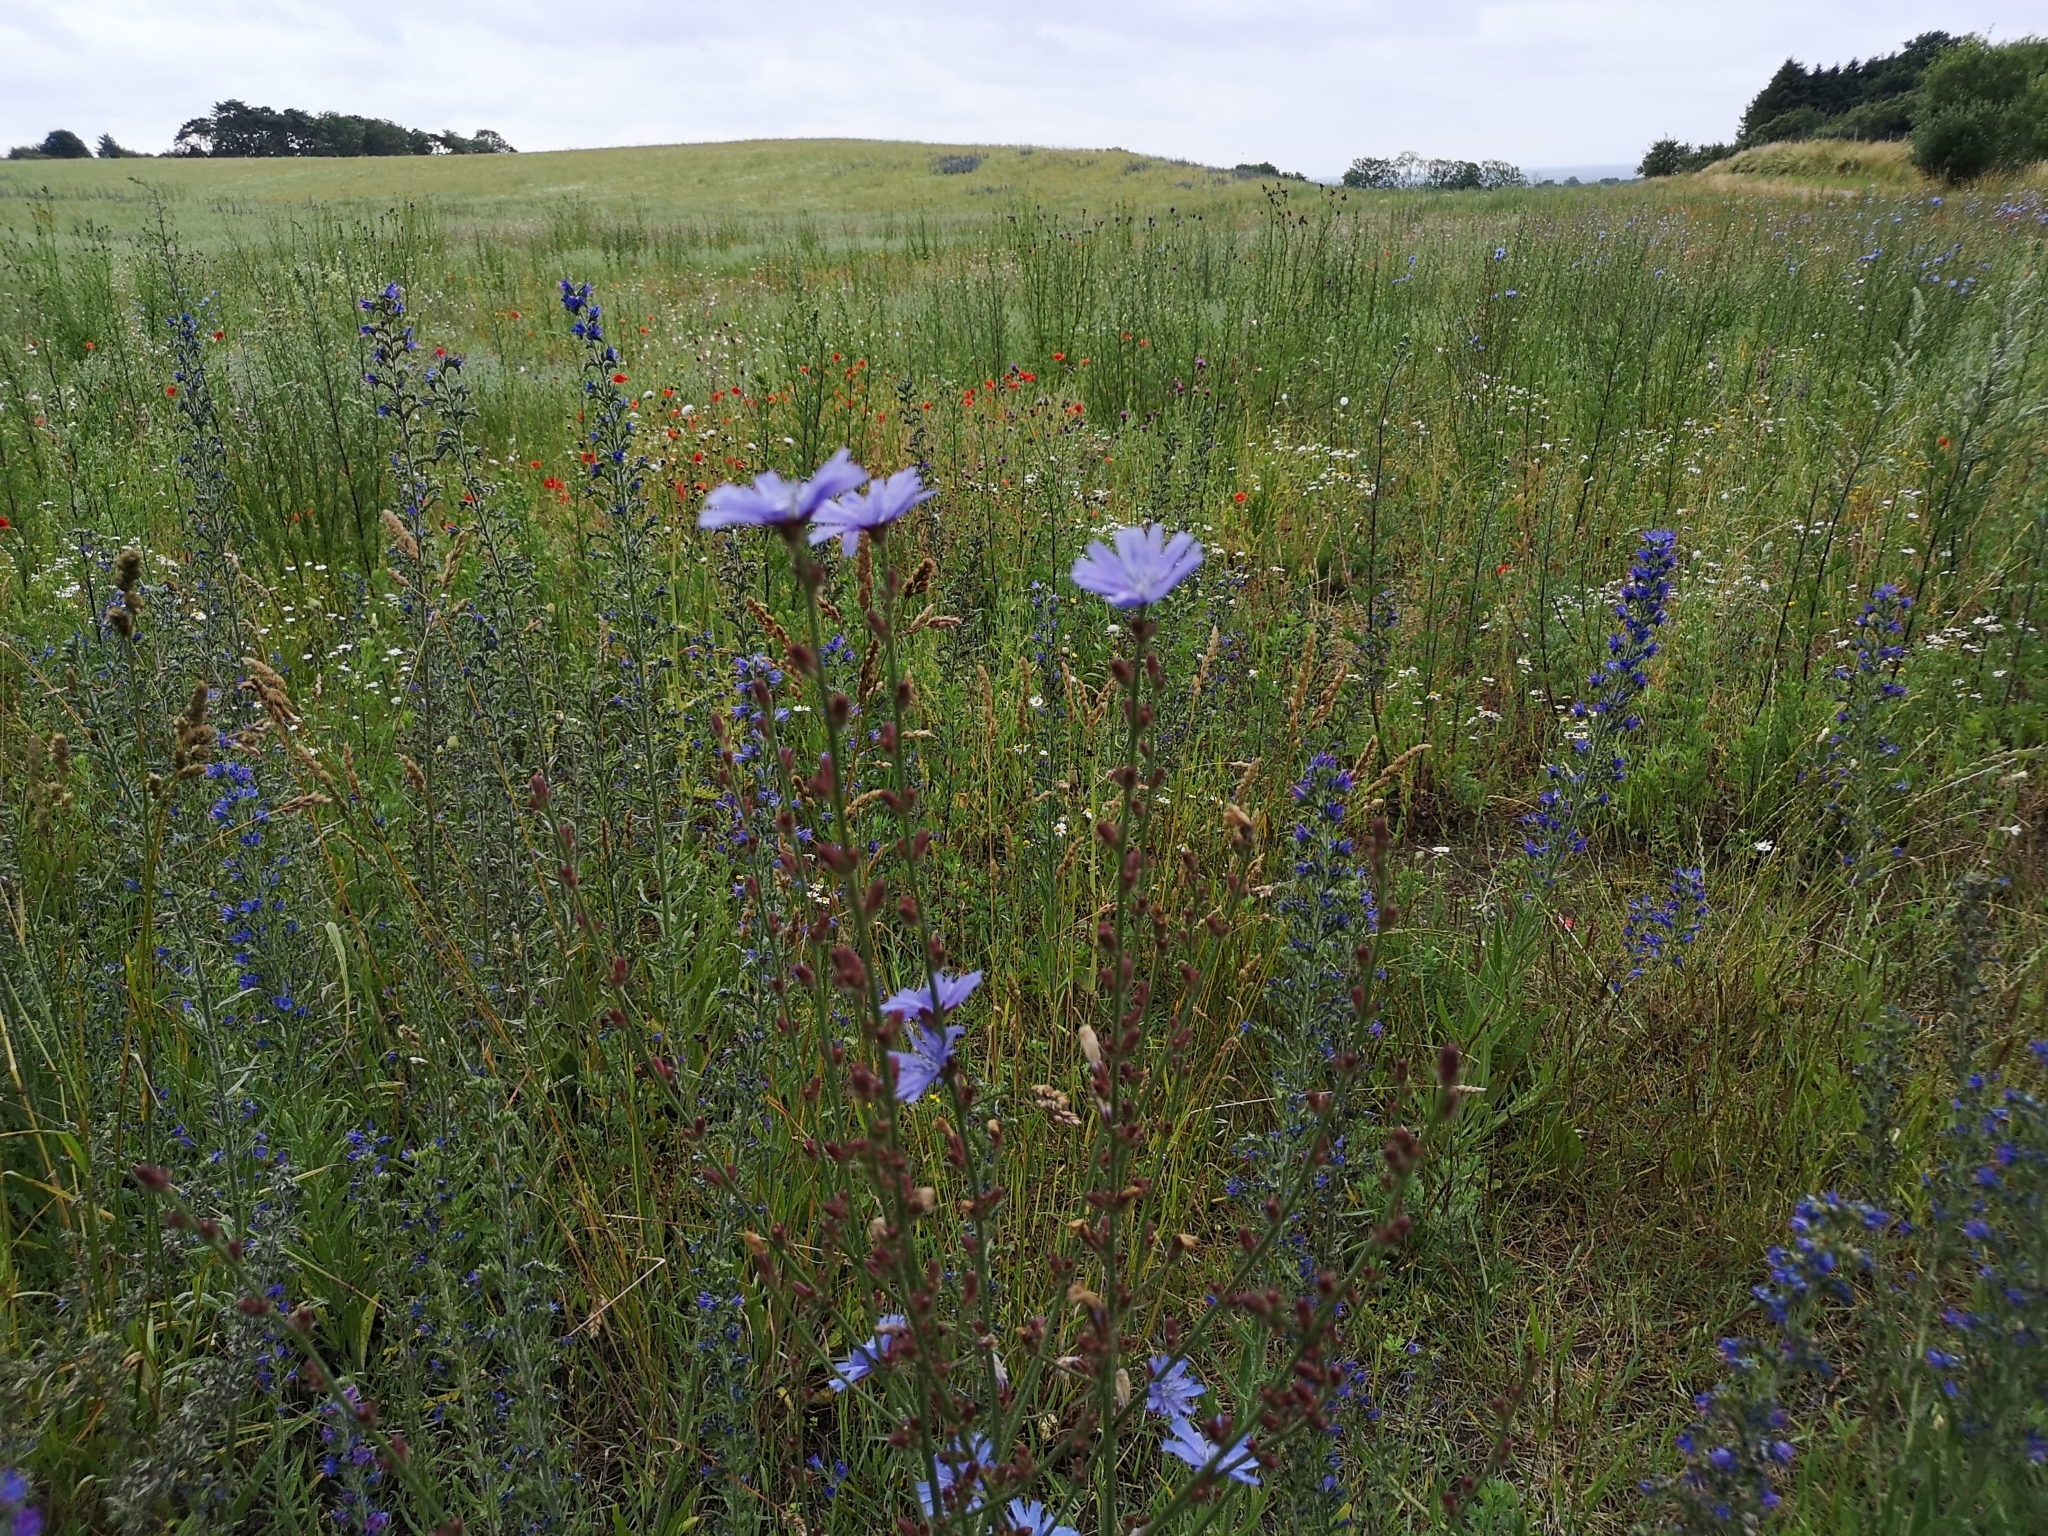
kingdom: Plantae
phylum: Tracheophyta
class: Magnoliopsida
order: Asterales
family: Asteraceae
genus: Cichorium
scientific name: Cichorium intybus
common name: Chicory
